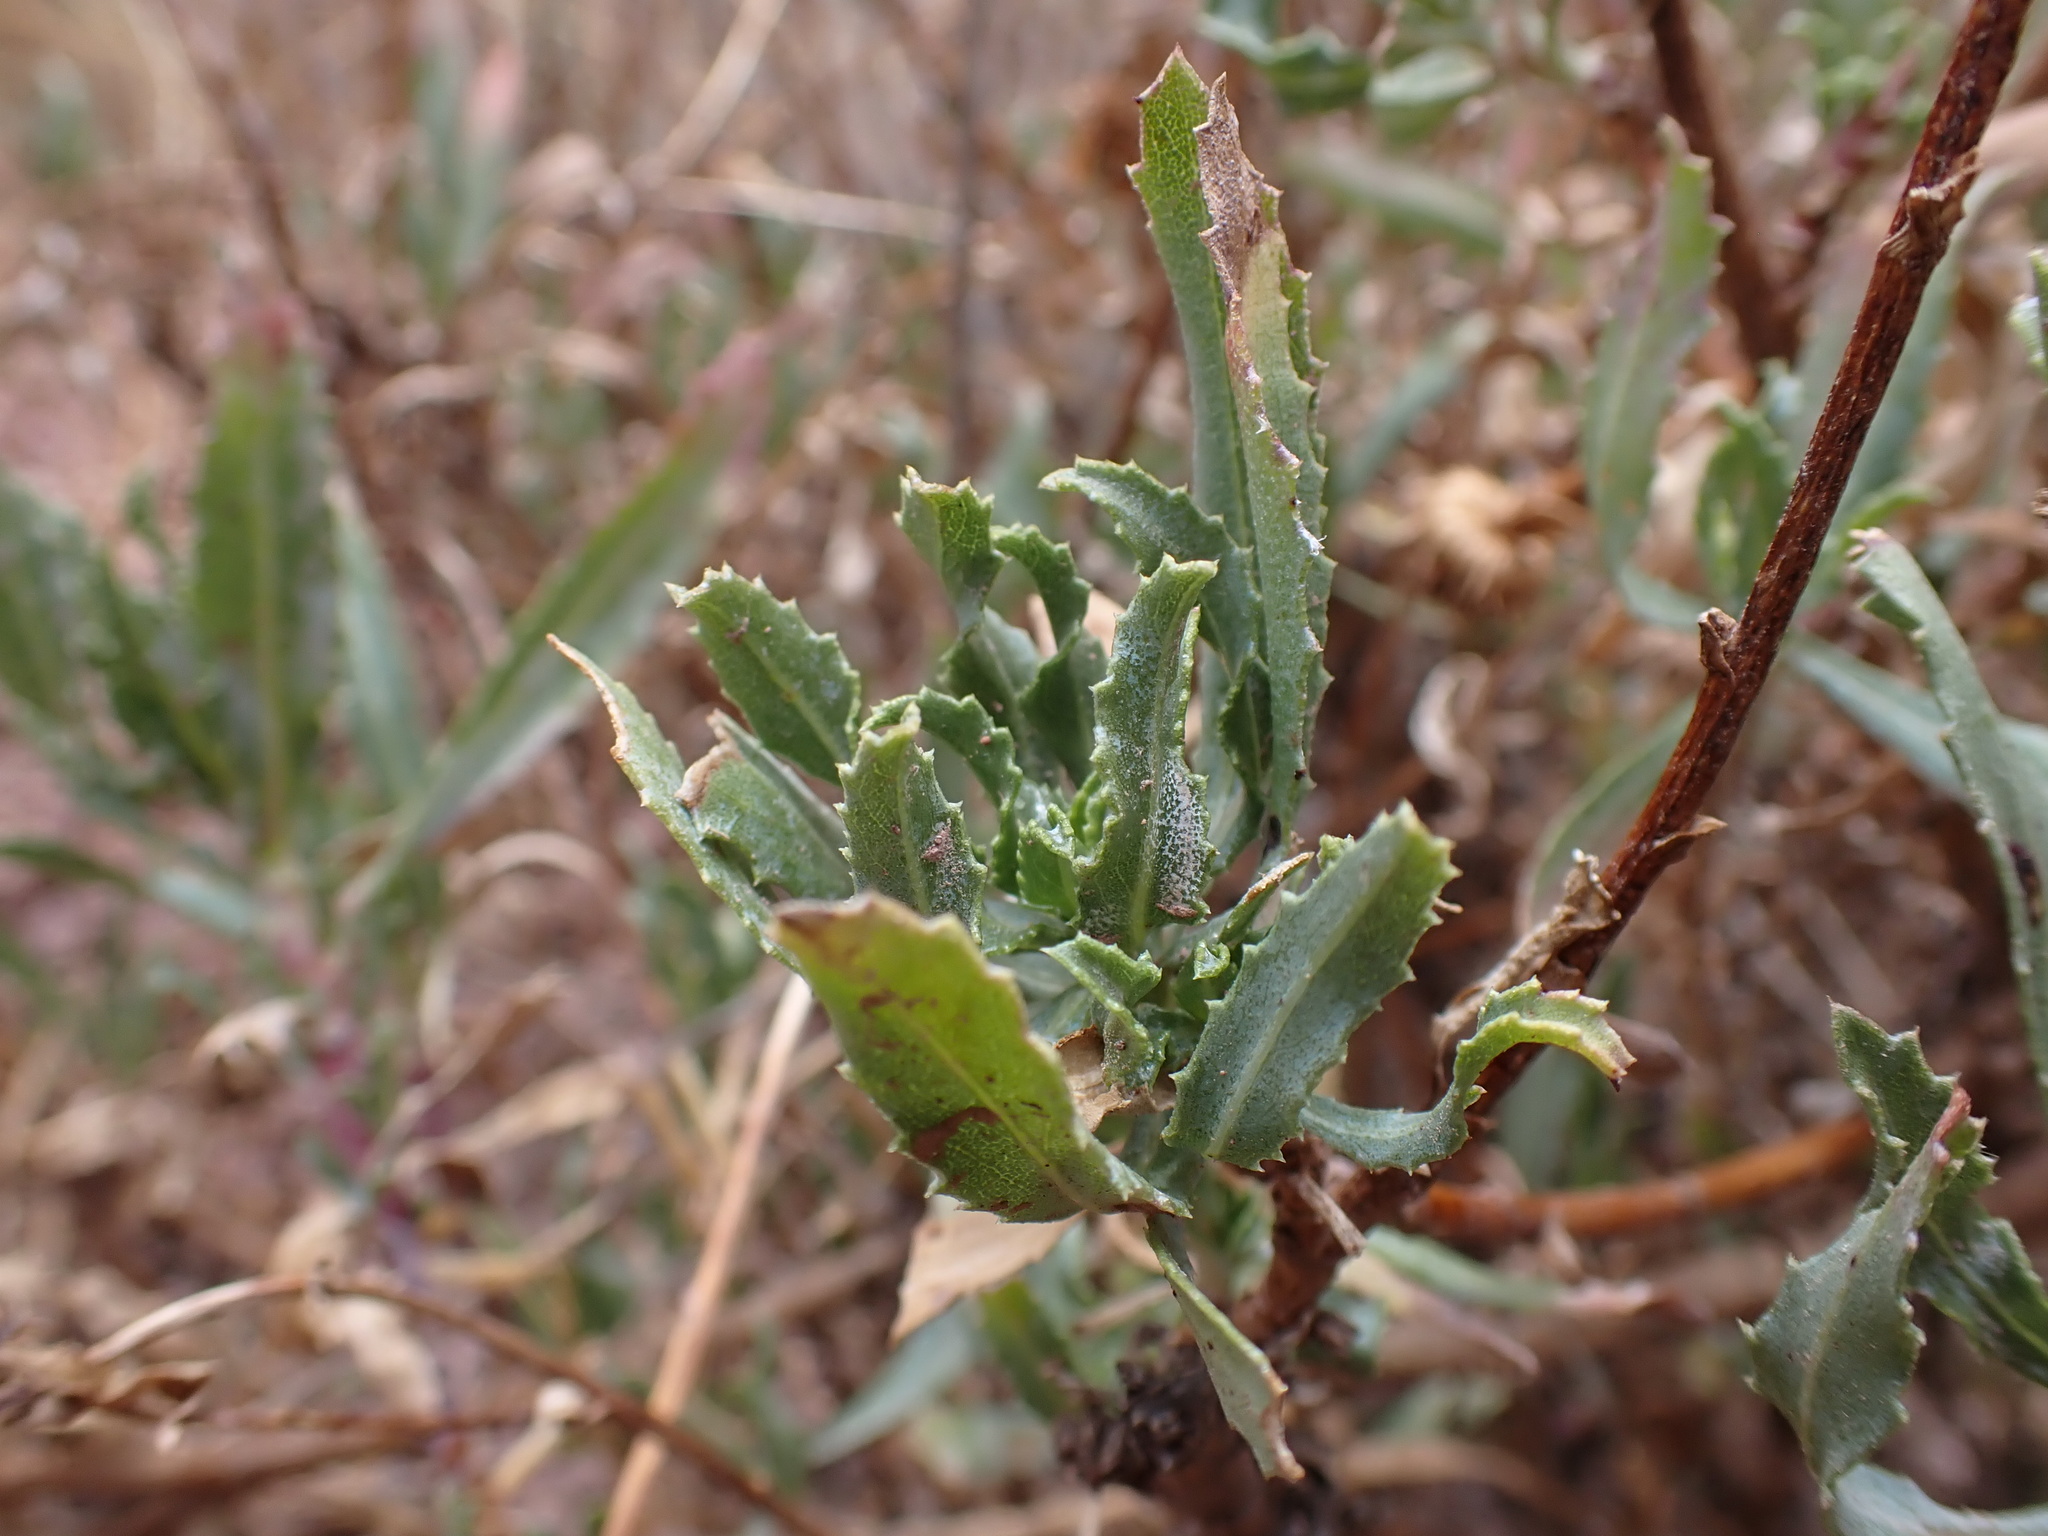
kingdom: Plantae
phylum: Tracheophyta
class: Magnoliopsida
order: Asterales
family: Asteraceae
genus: Grindelia
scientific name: Grindelia boliviana
